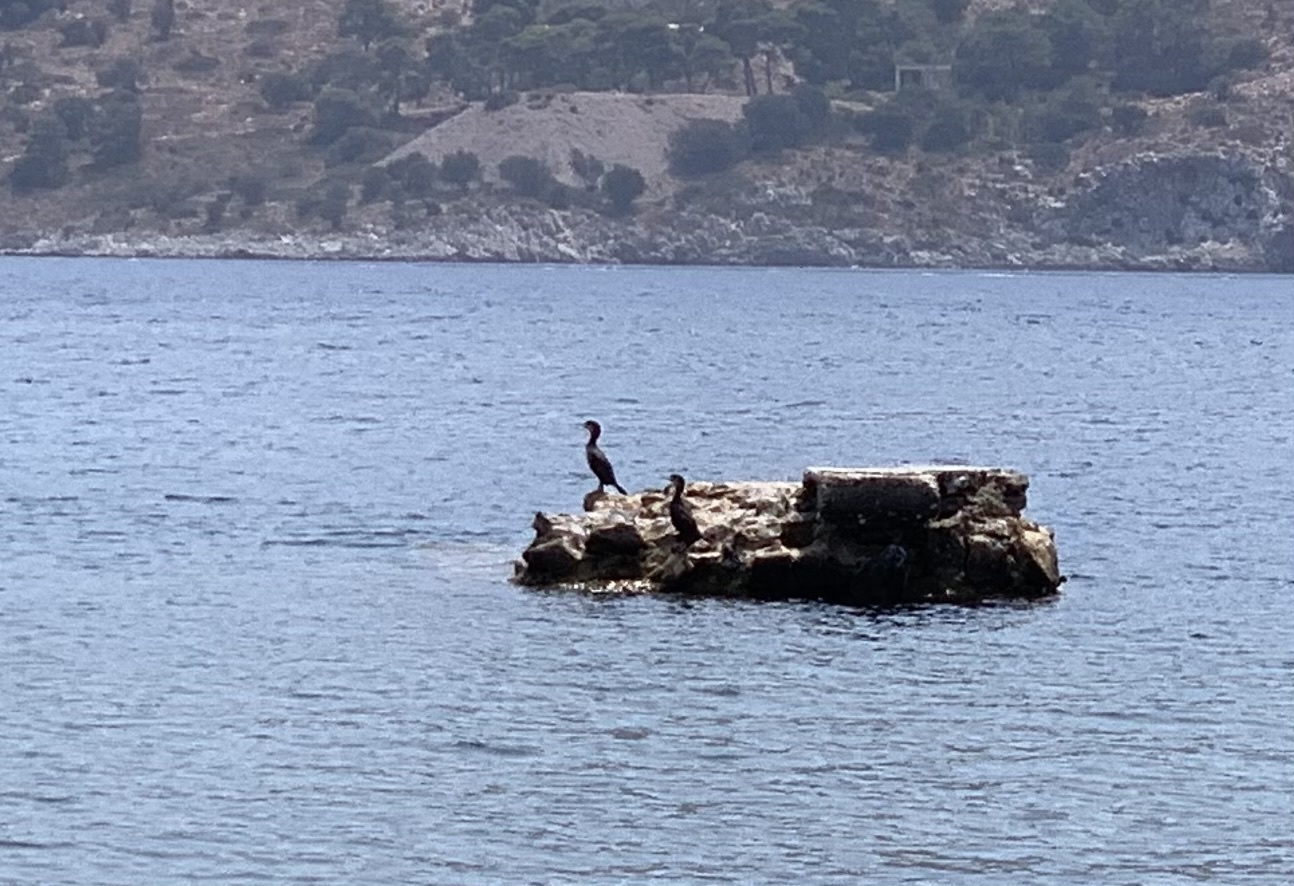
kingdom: Animalia
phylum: Chordata
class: Aves
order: Suliformes
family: Phalacrocoracidae
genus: Phalacrocorax
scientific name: Phalacrocorax carbo
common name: Great cormorant
